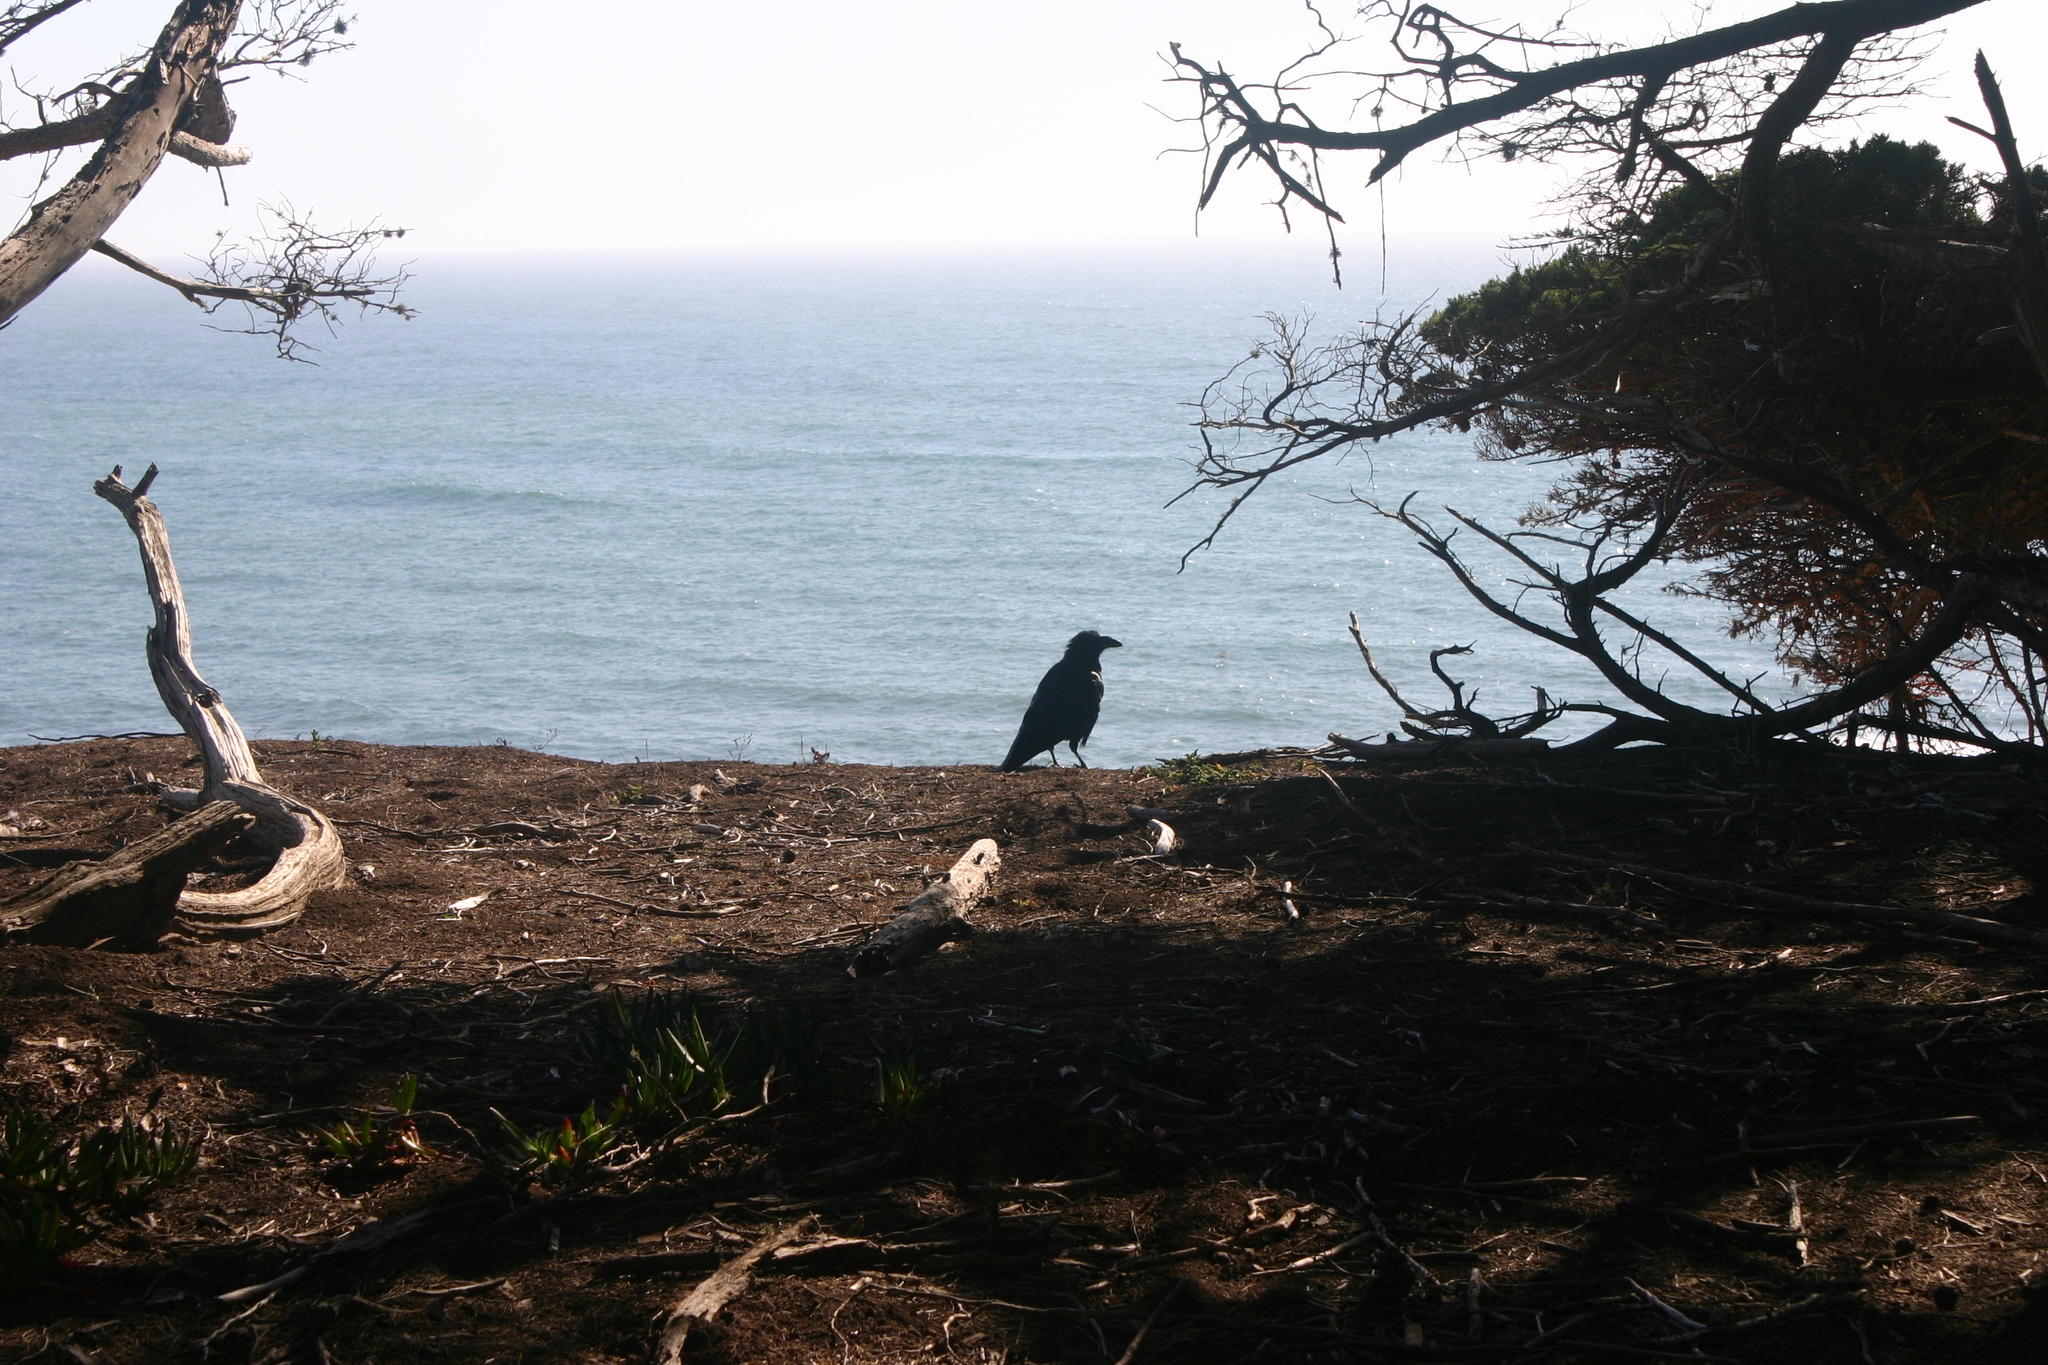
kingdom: Animalia
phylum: Chordata
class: Aves
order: Passeriformes
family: Corvidae
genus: Corvus
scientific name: Corvus corax
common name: Common raven
